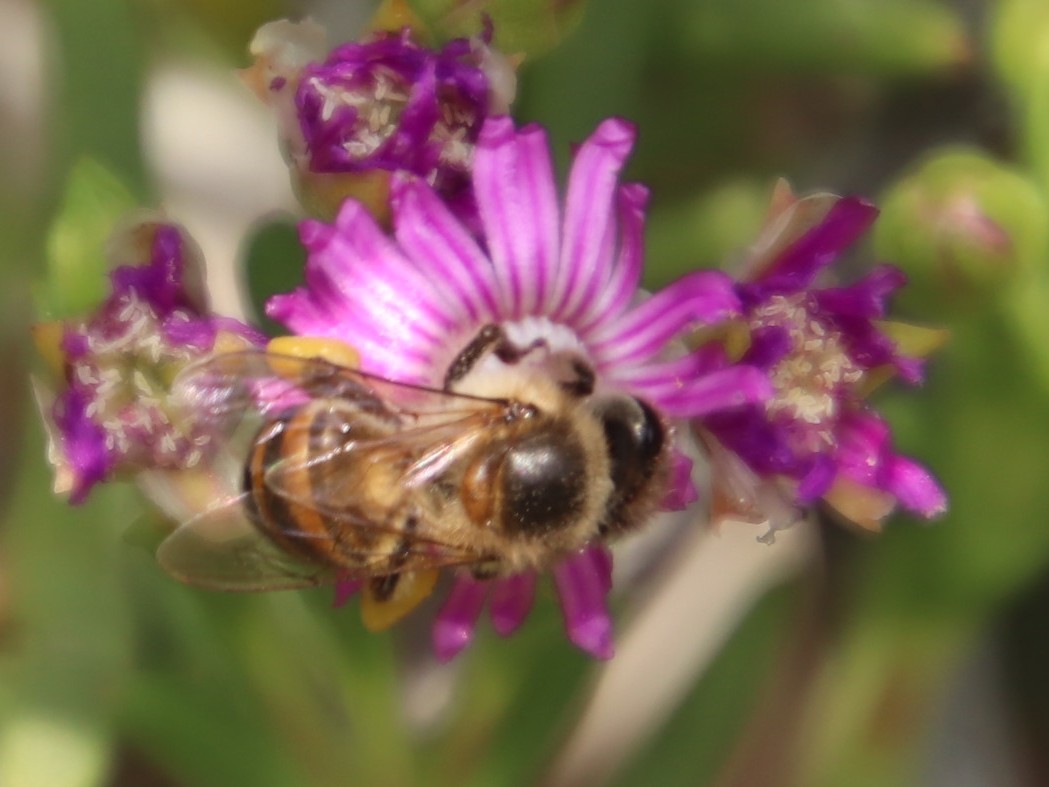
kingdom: Animalia
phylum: Arthropoda
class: Insecta
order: Hymenoptera
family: Apidae
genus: Apis
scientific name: Apis mellifera
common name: Honey bee
